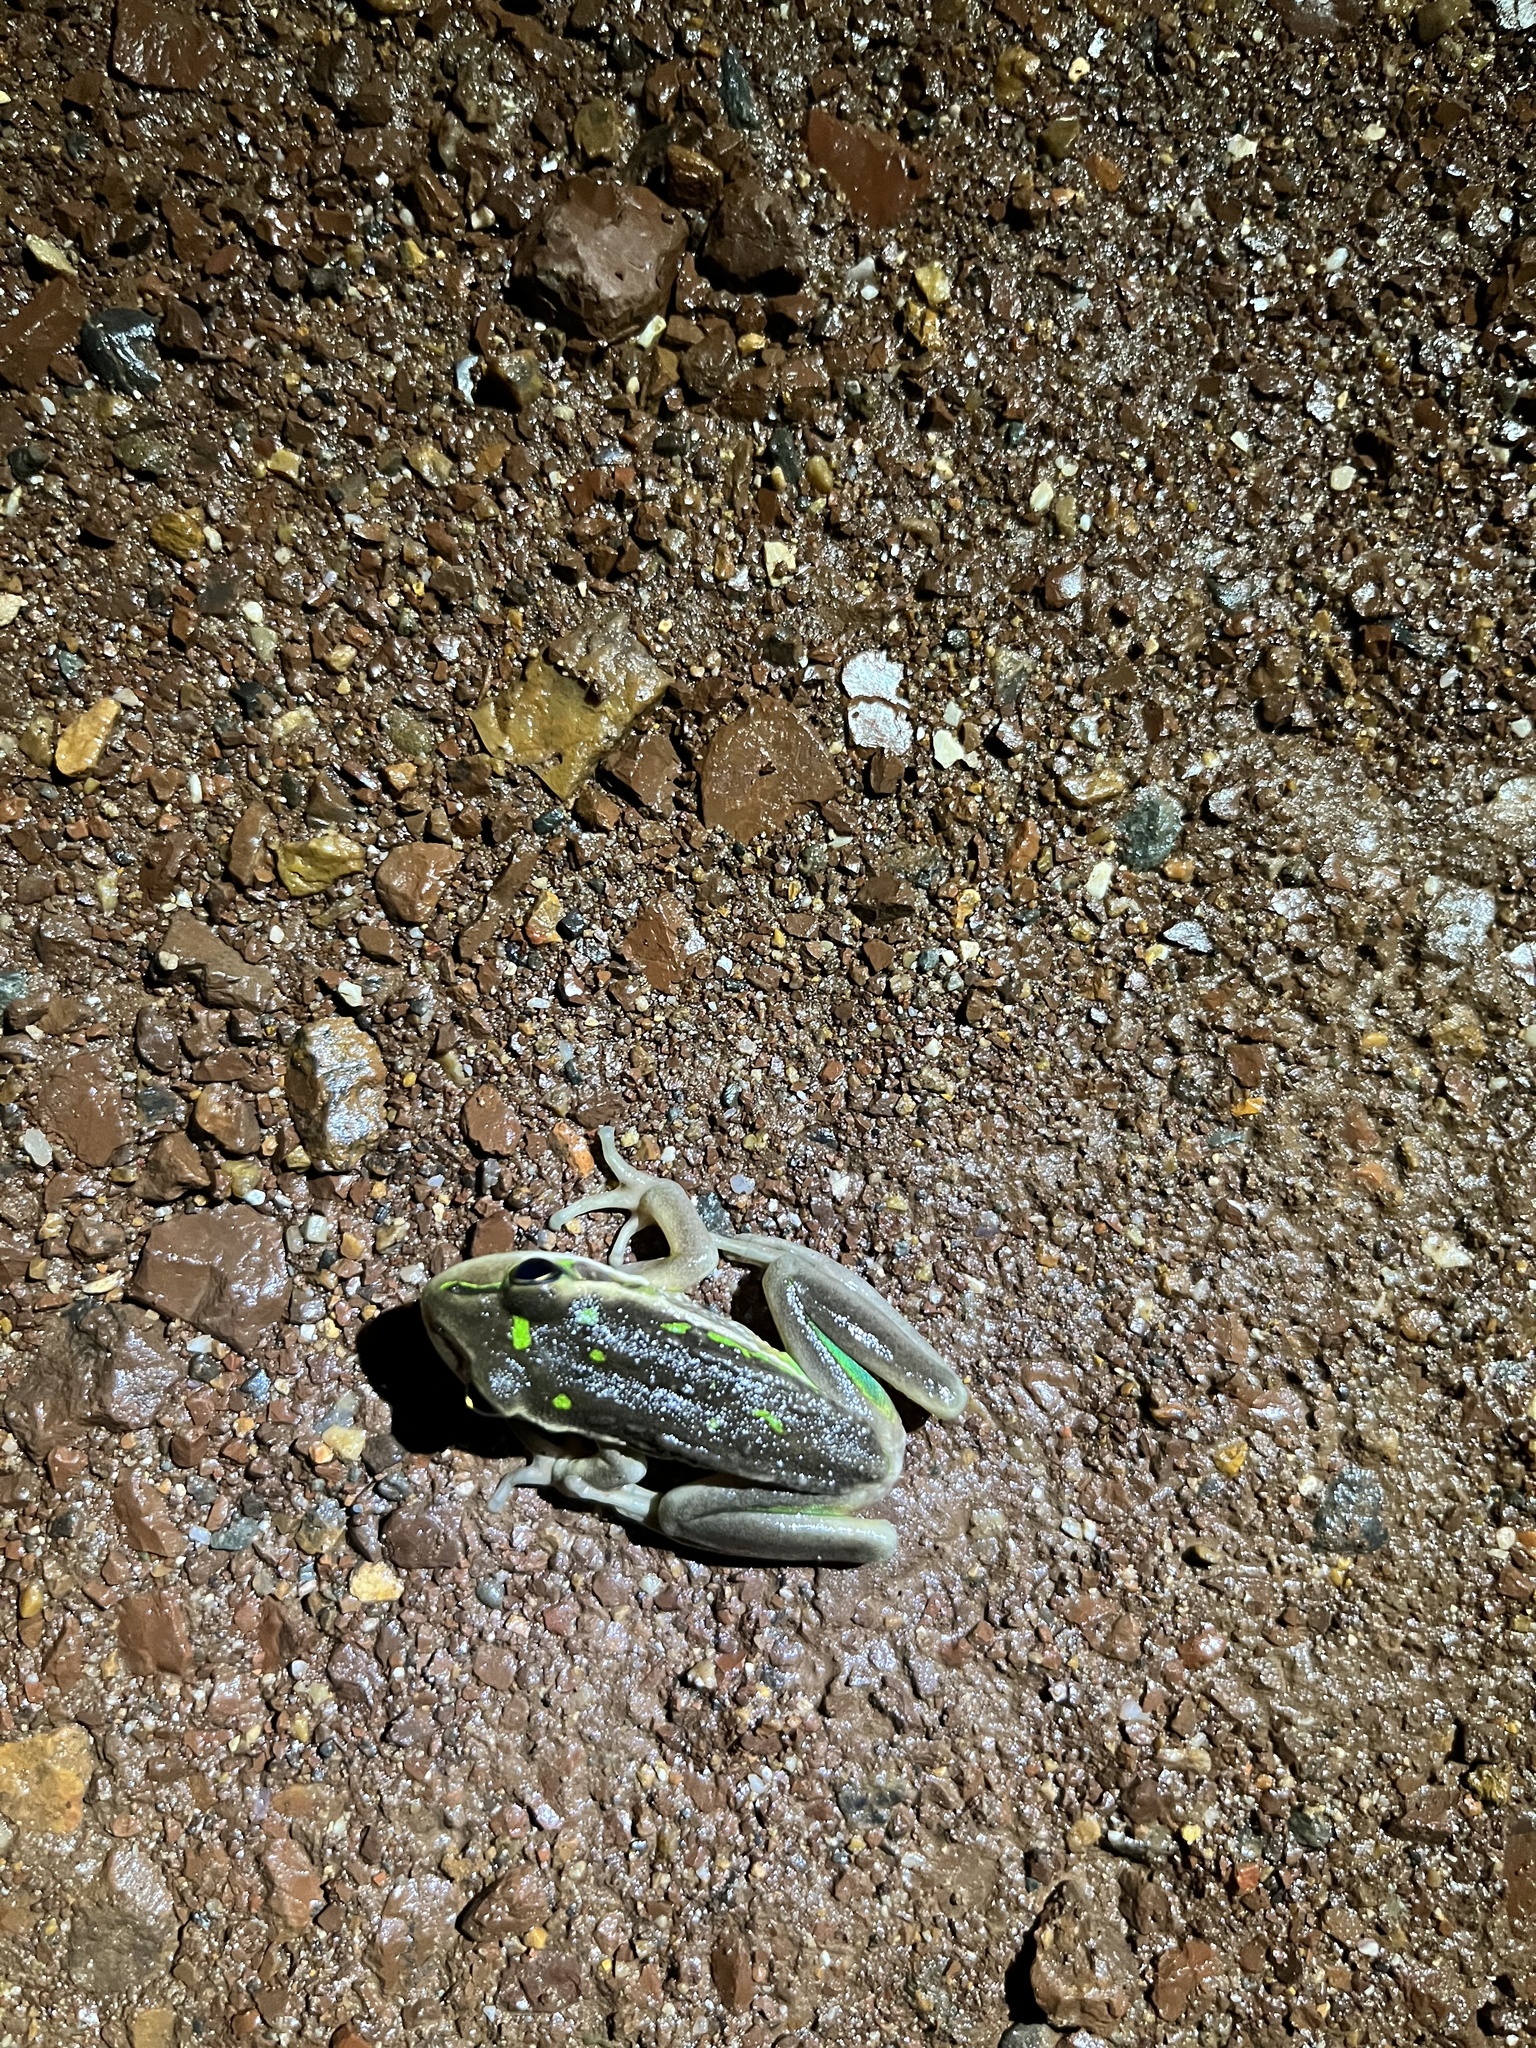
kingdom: Animalia
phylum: Chordata
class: Amphibia
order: Anura
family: Pelodryadidae
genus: Ranoidea
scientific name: Ranoidea raniformis
